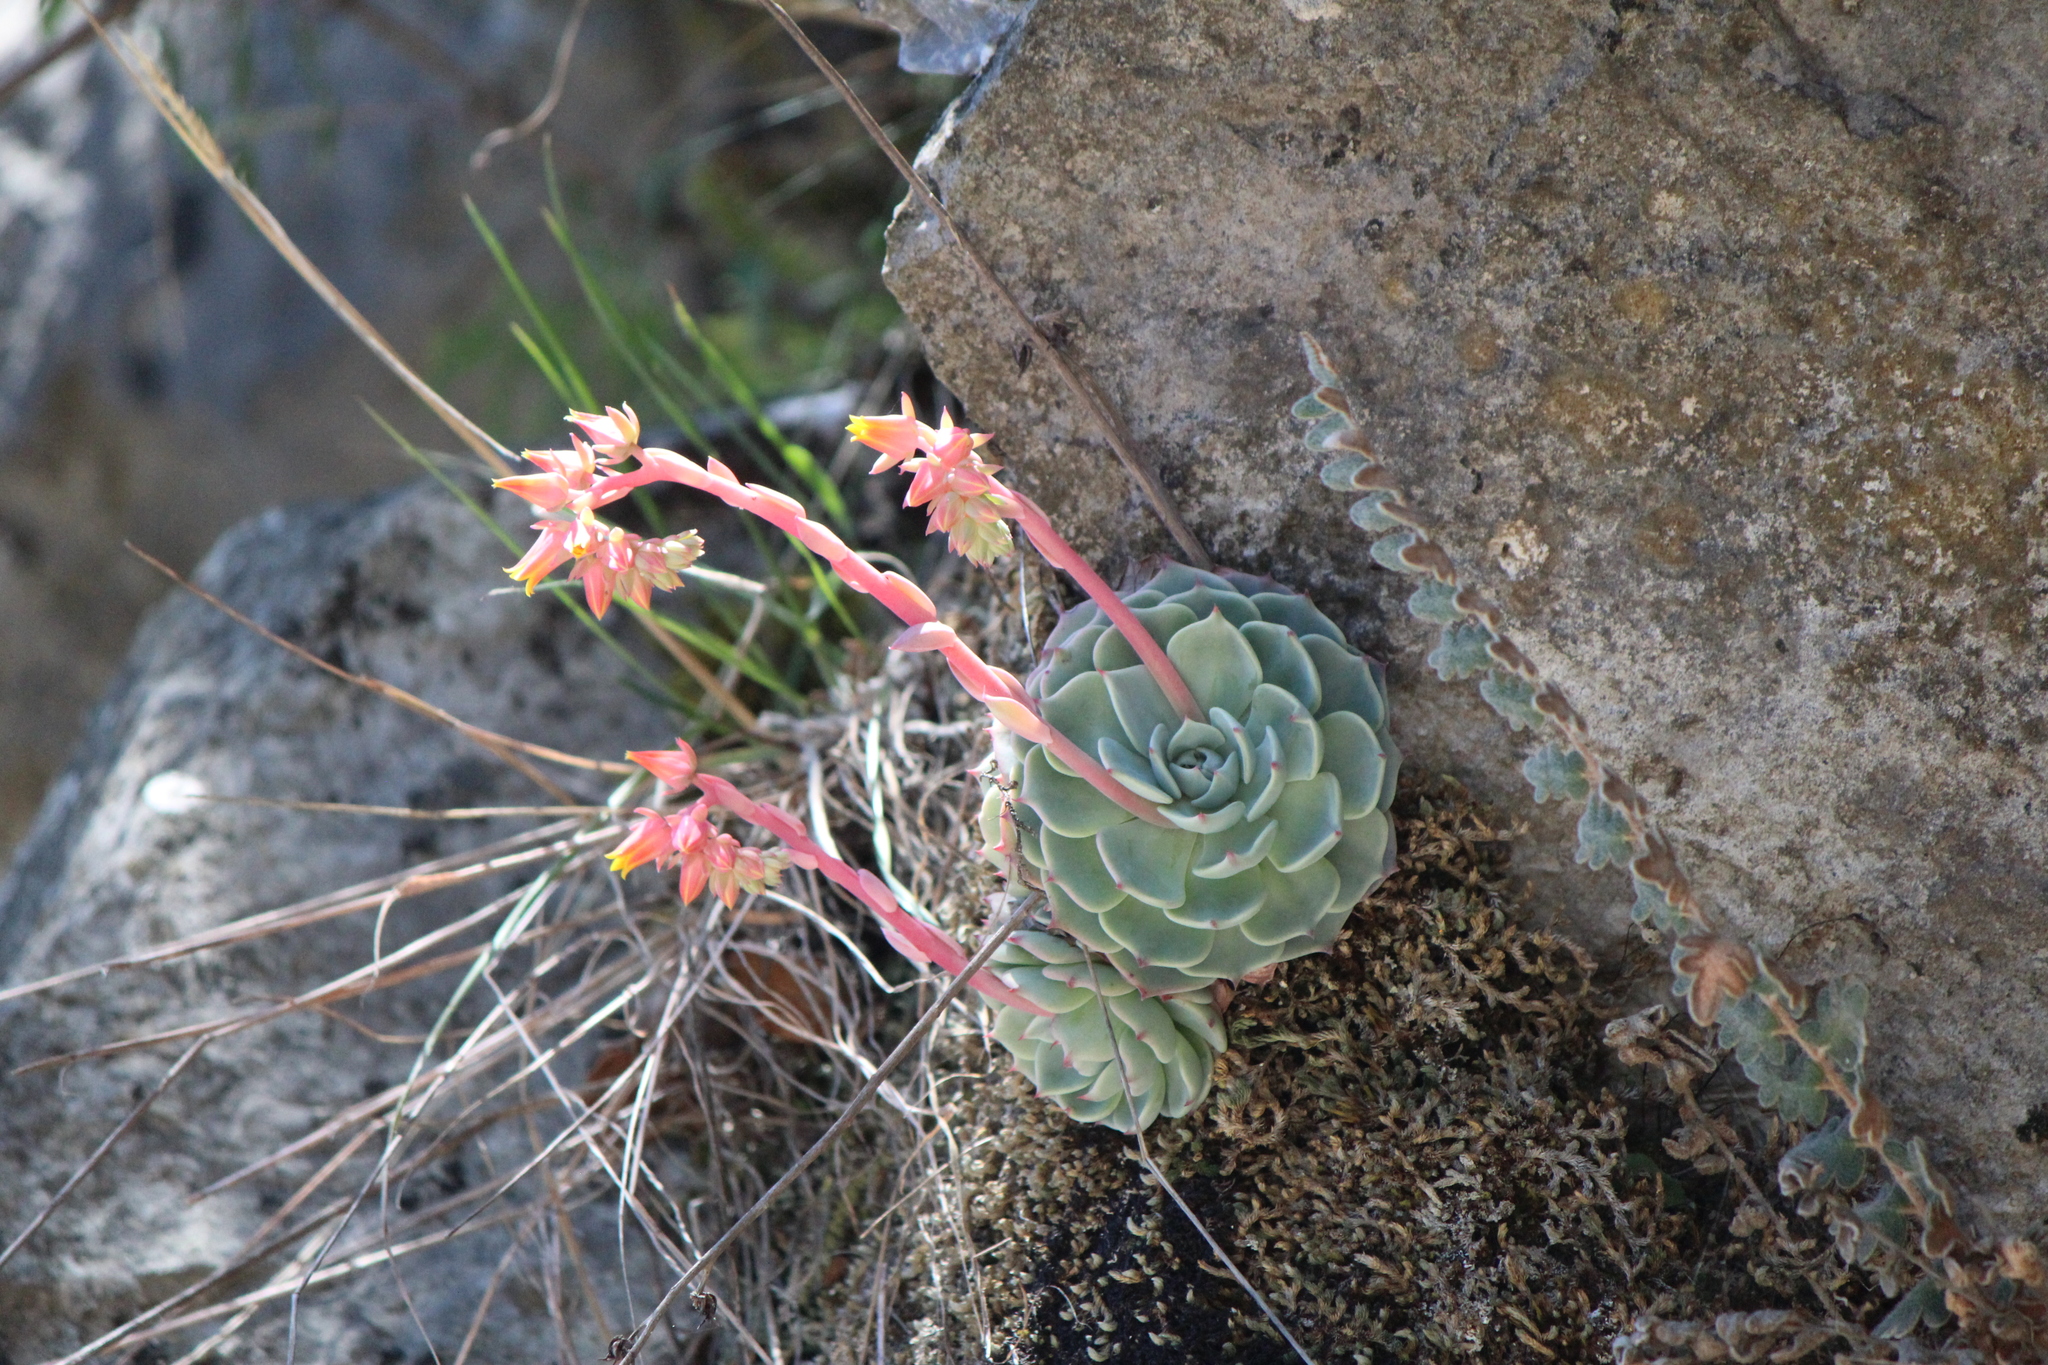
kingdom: Plantae
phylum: Tracheophyta
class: Magnoliopsida
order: Saxifragales
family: Crassulaceae
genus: Echeveria
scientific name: Echeveria secunda
